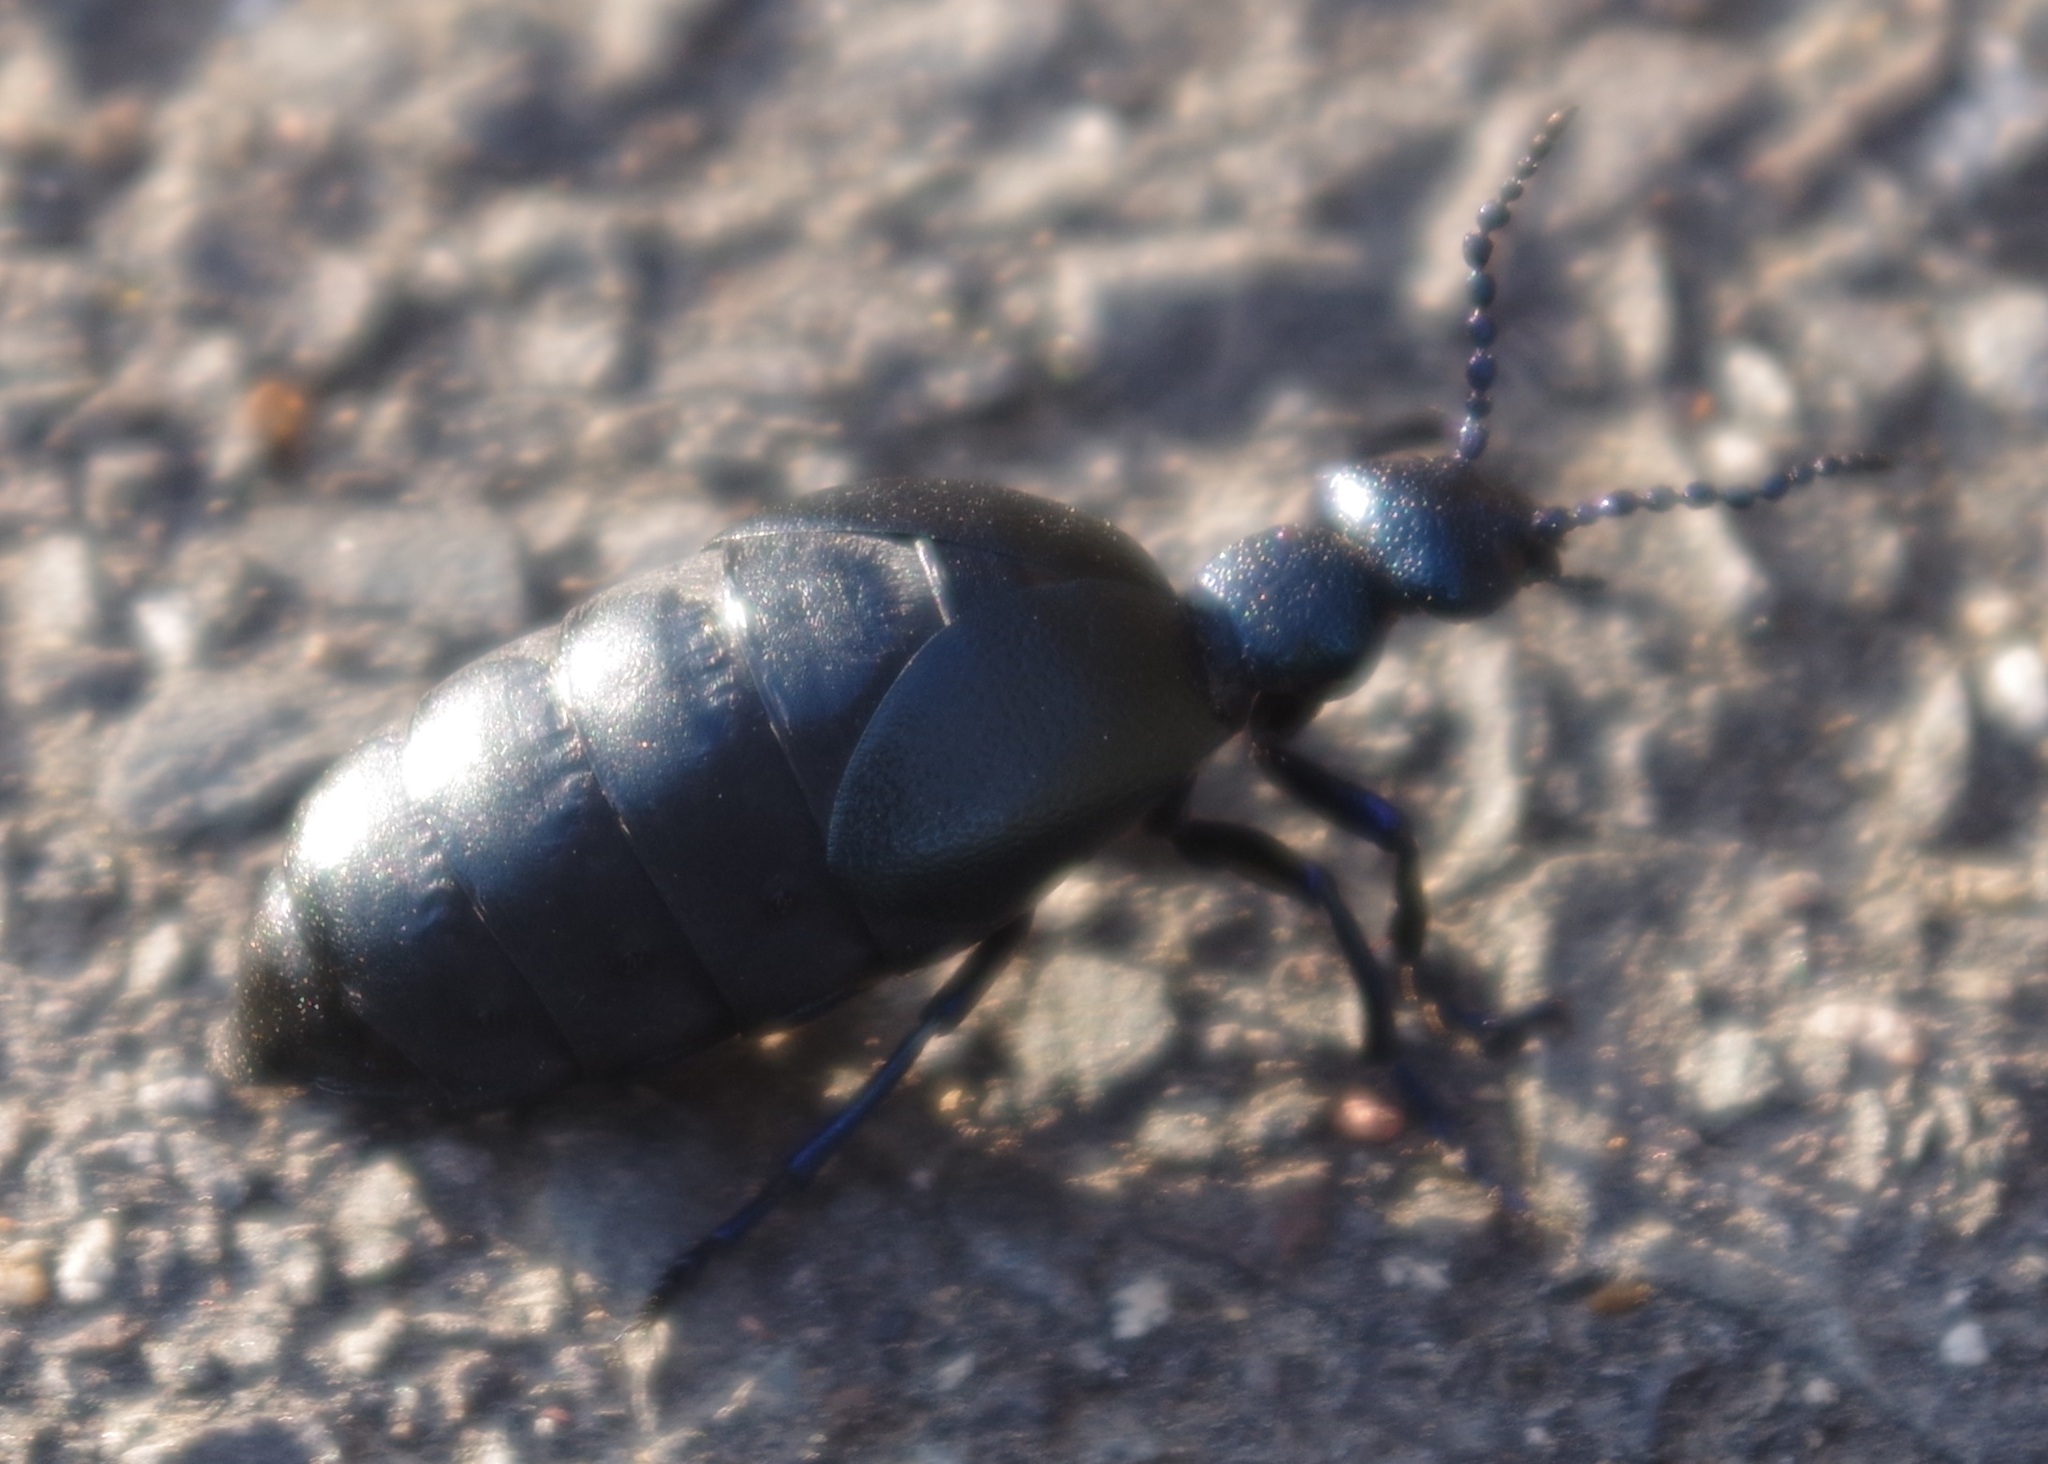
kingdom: Animalia
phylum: Arthropoda
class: Insecta
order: Coleoptera
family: Meloidae
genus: Meloe
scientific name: Meloe proscarabaeus
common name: Black oil-beetle
